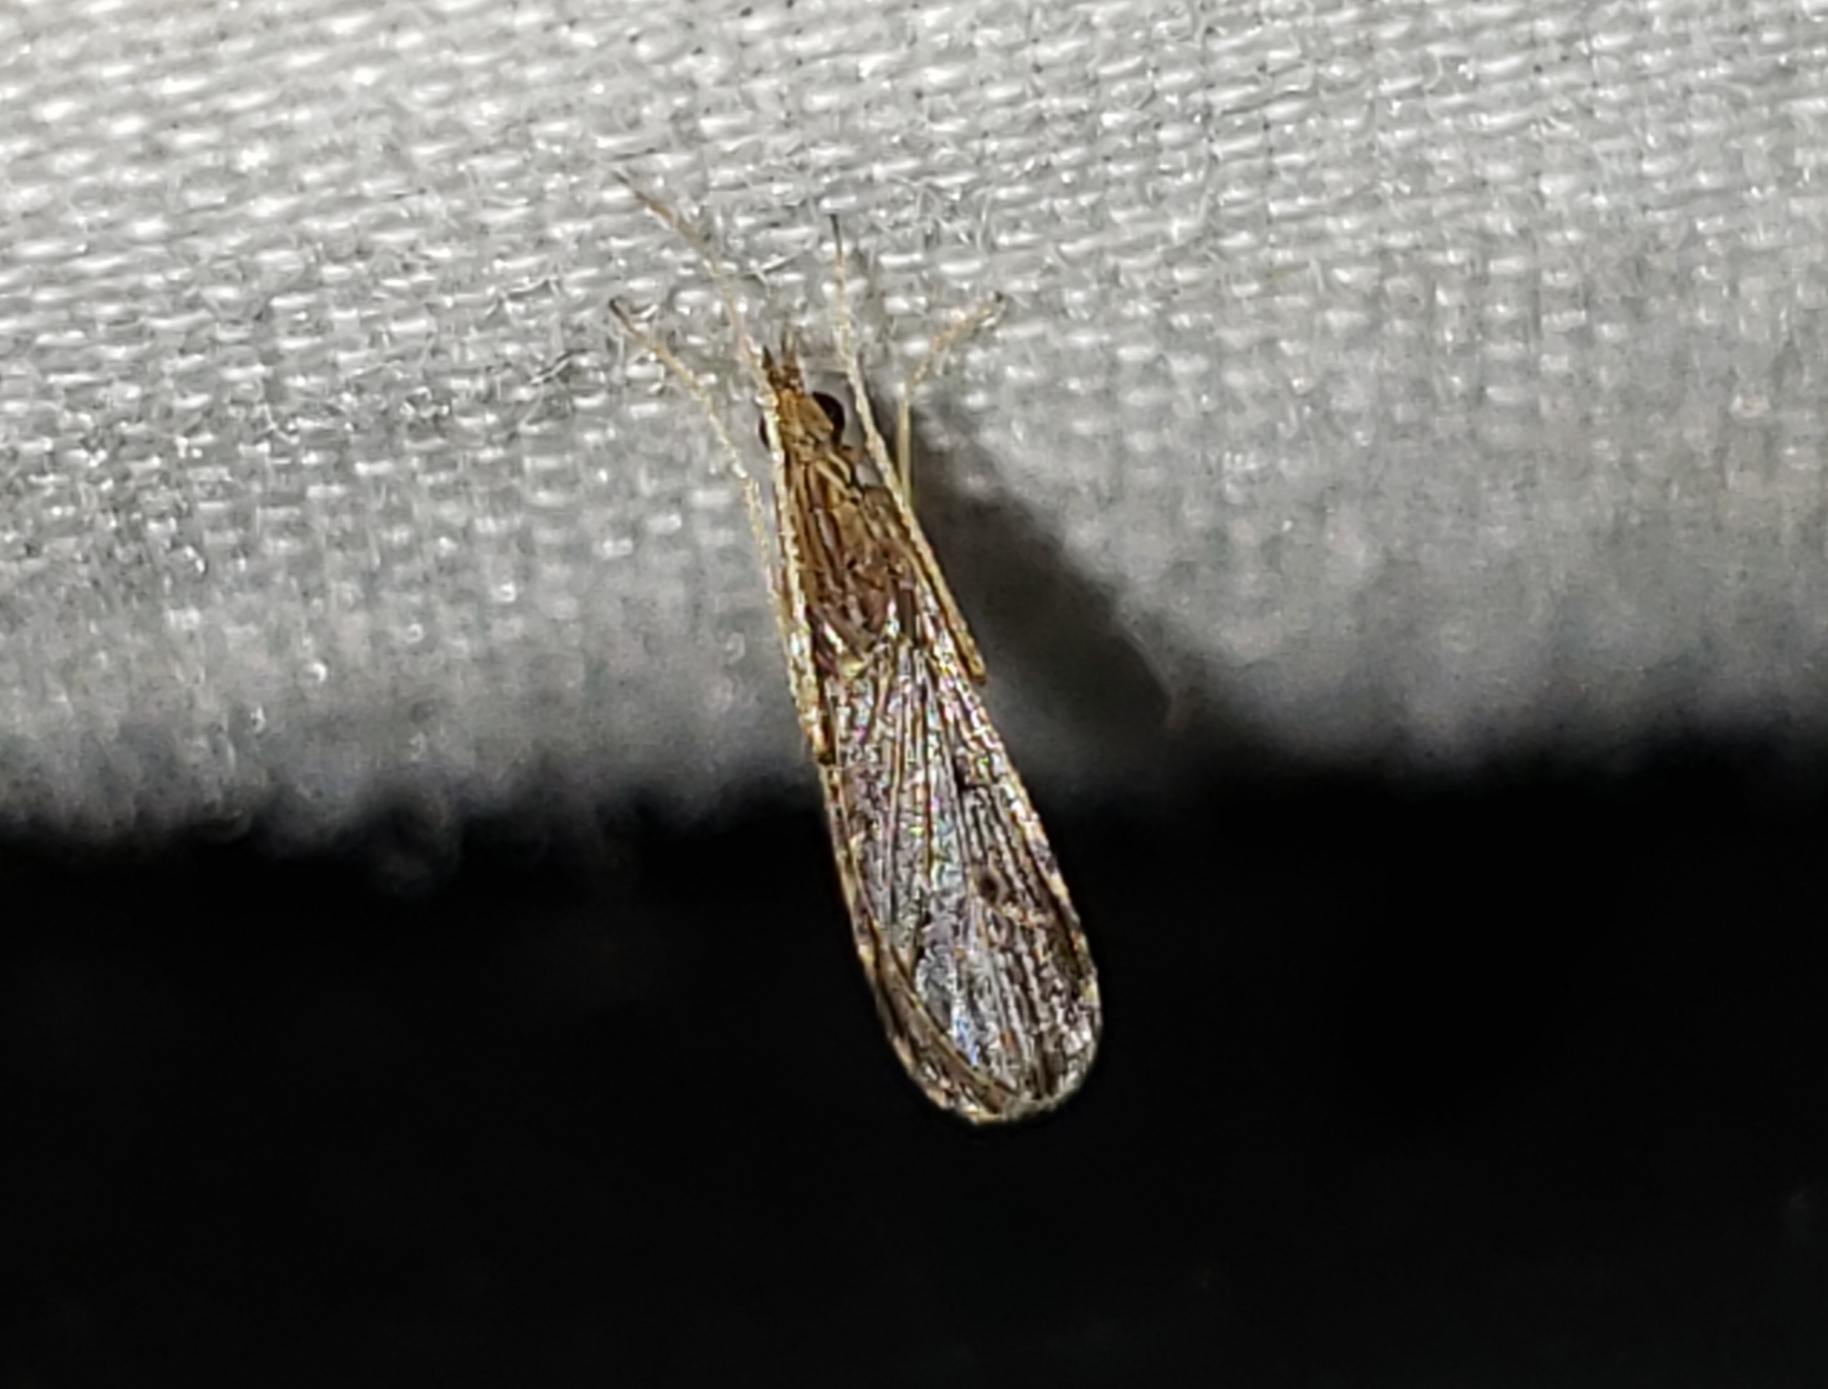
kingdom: Animalia
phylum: Arthropoda
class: Insecta
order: Diptera
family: Limoniidae
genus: Erioptera
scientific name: Erioptera tantilla
